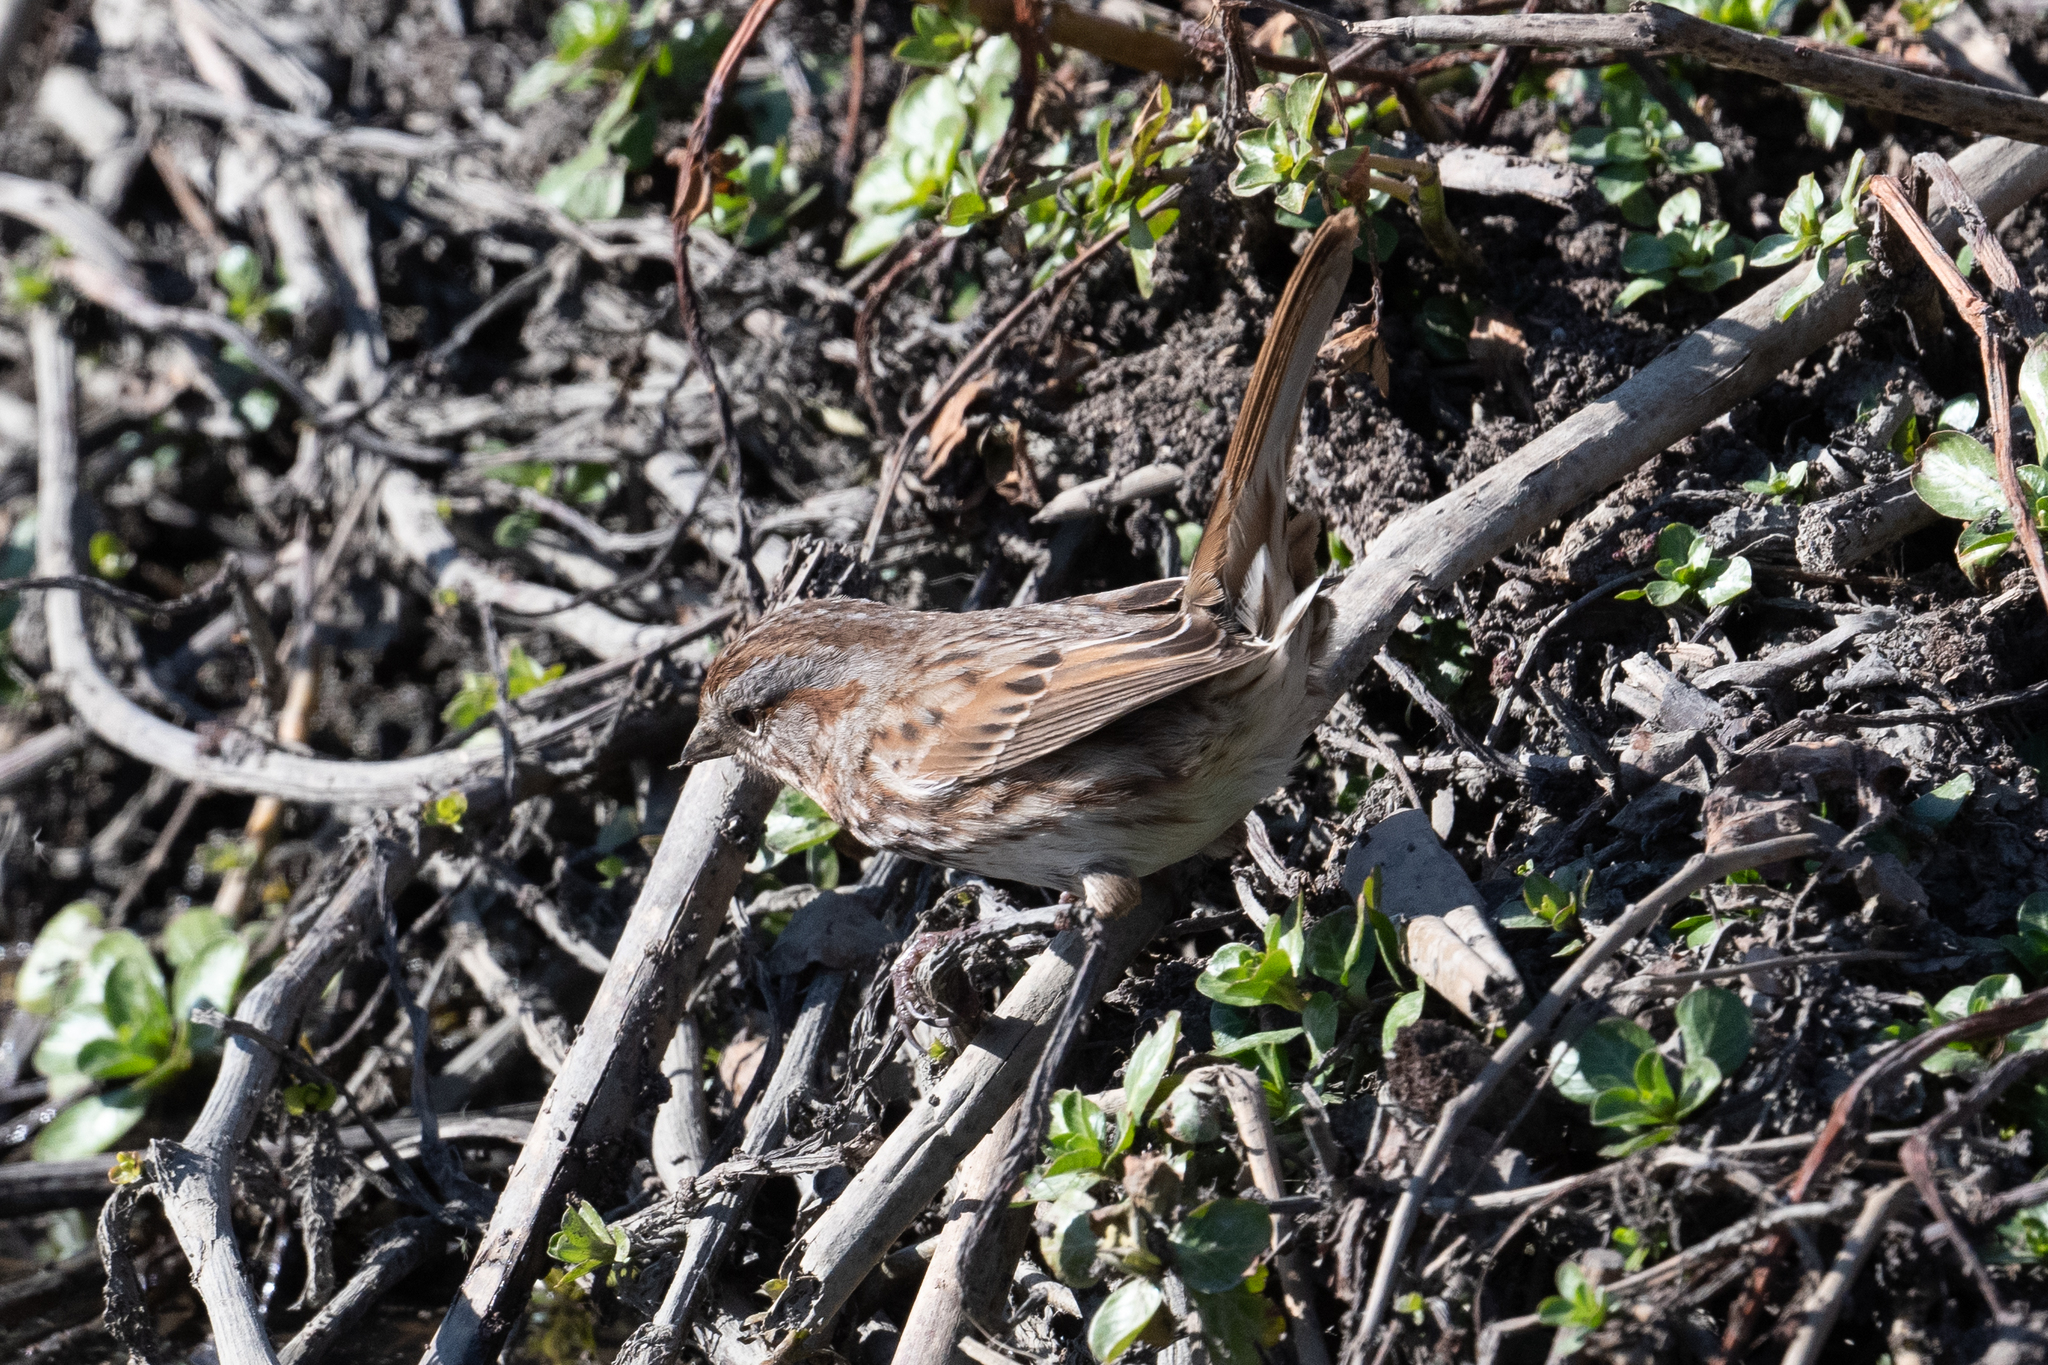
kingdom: Animalia
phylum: Chordata
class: Aves
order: Passeriformes
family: Passerellidae
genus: Melospiza
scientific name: Melospiza melodia
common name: Song sparrow
